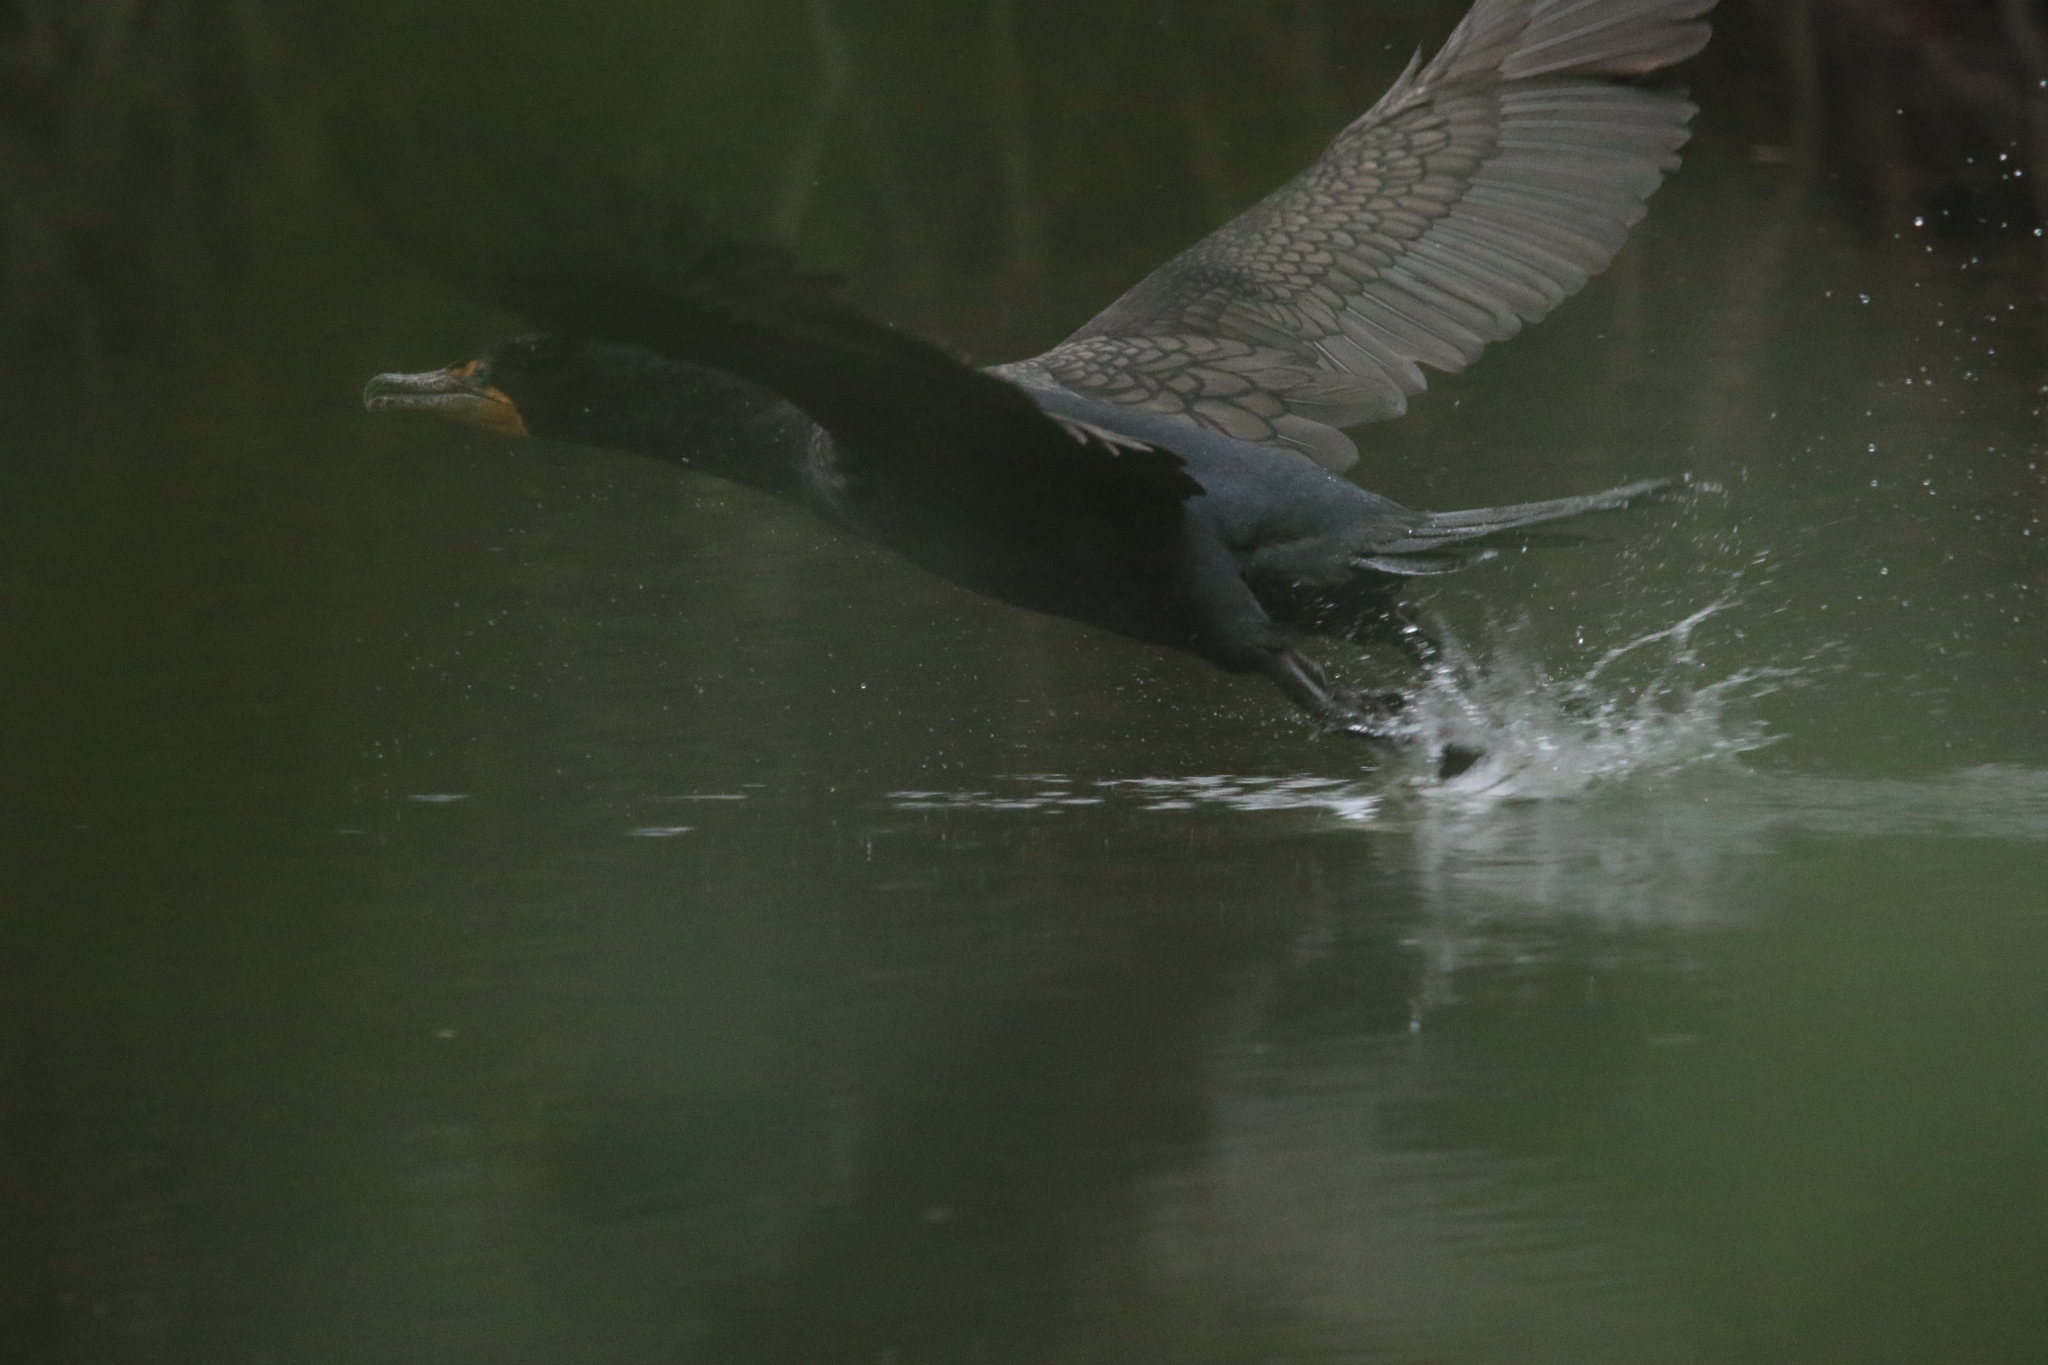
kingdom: Animalia
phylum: Chordata
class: Aves
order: Suliformes
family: Phalacrocoracidae
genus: Phalacrocorax
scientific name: Phalacrocorax auritus
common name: Double-crested cormorant
